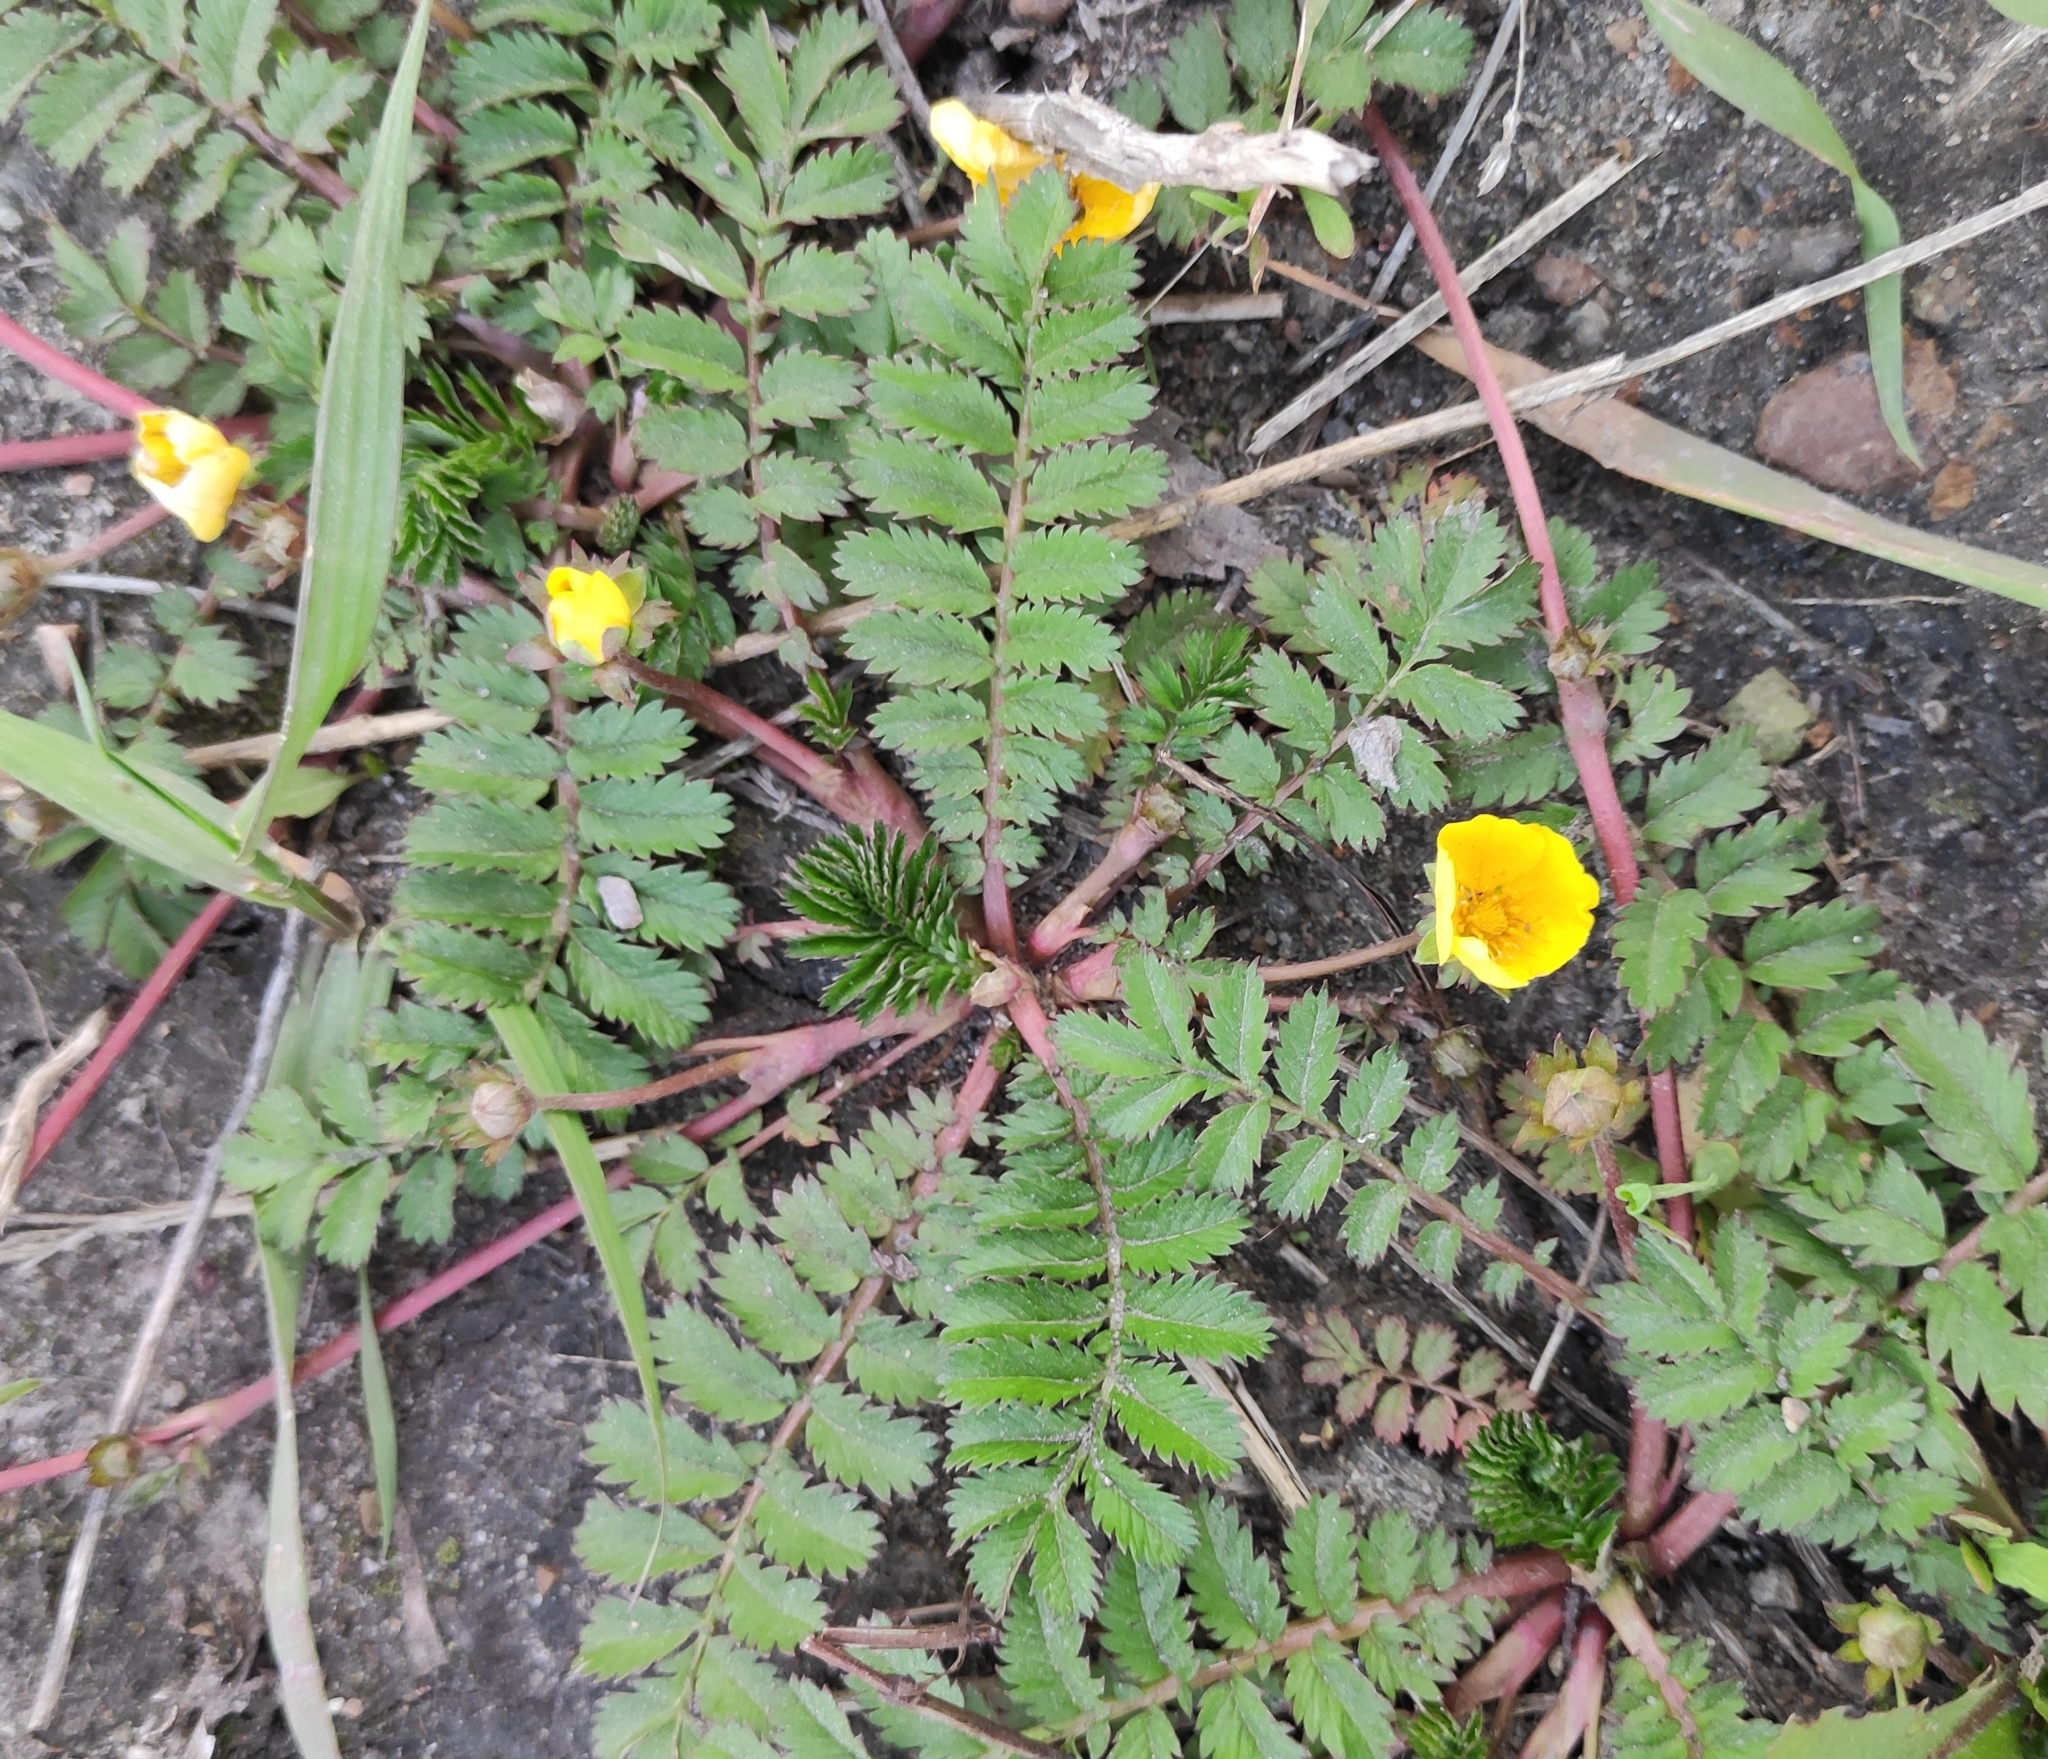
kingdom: Plantae
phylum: Tracheophyta
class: Magnoliopsida
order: Rosales
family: Rosaceae
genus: Argentina
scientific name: Argentina anserina
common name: Common silverweed
